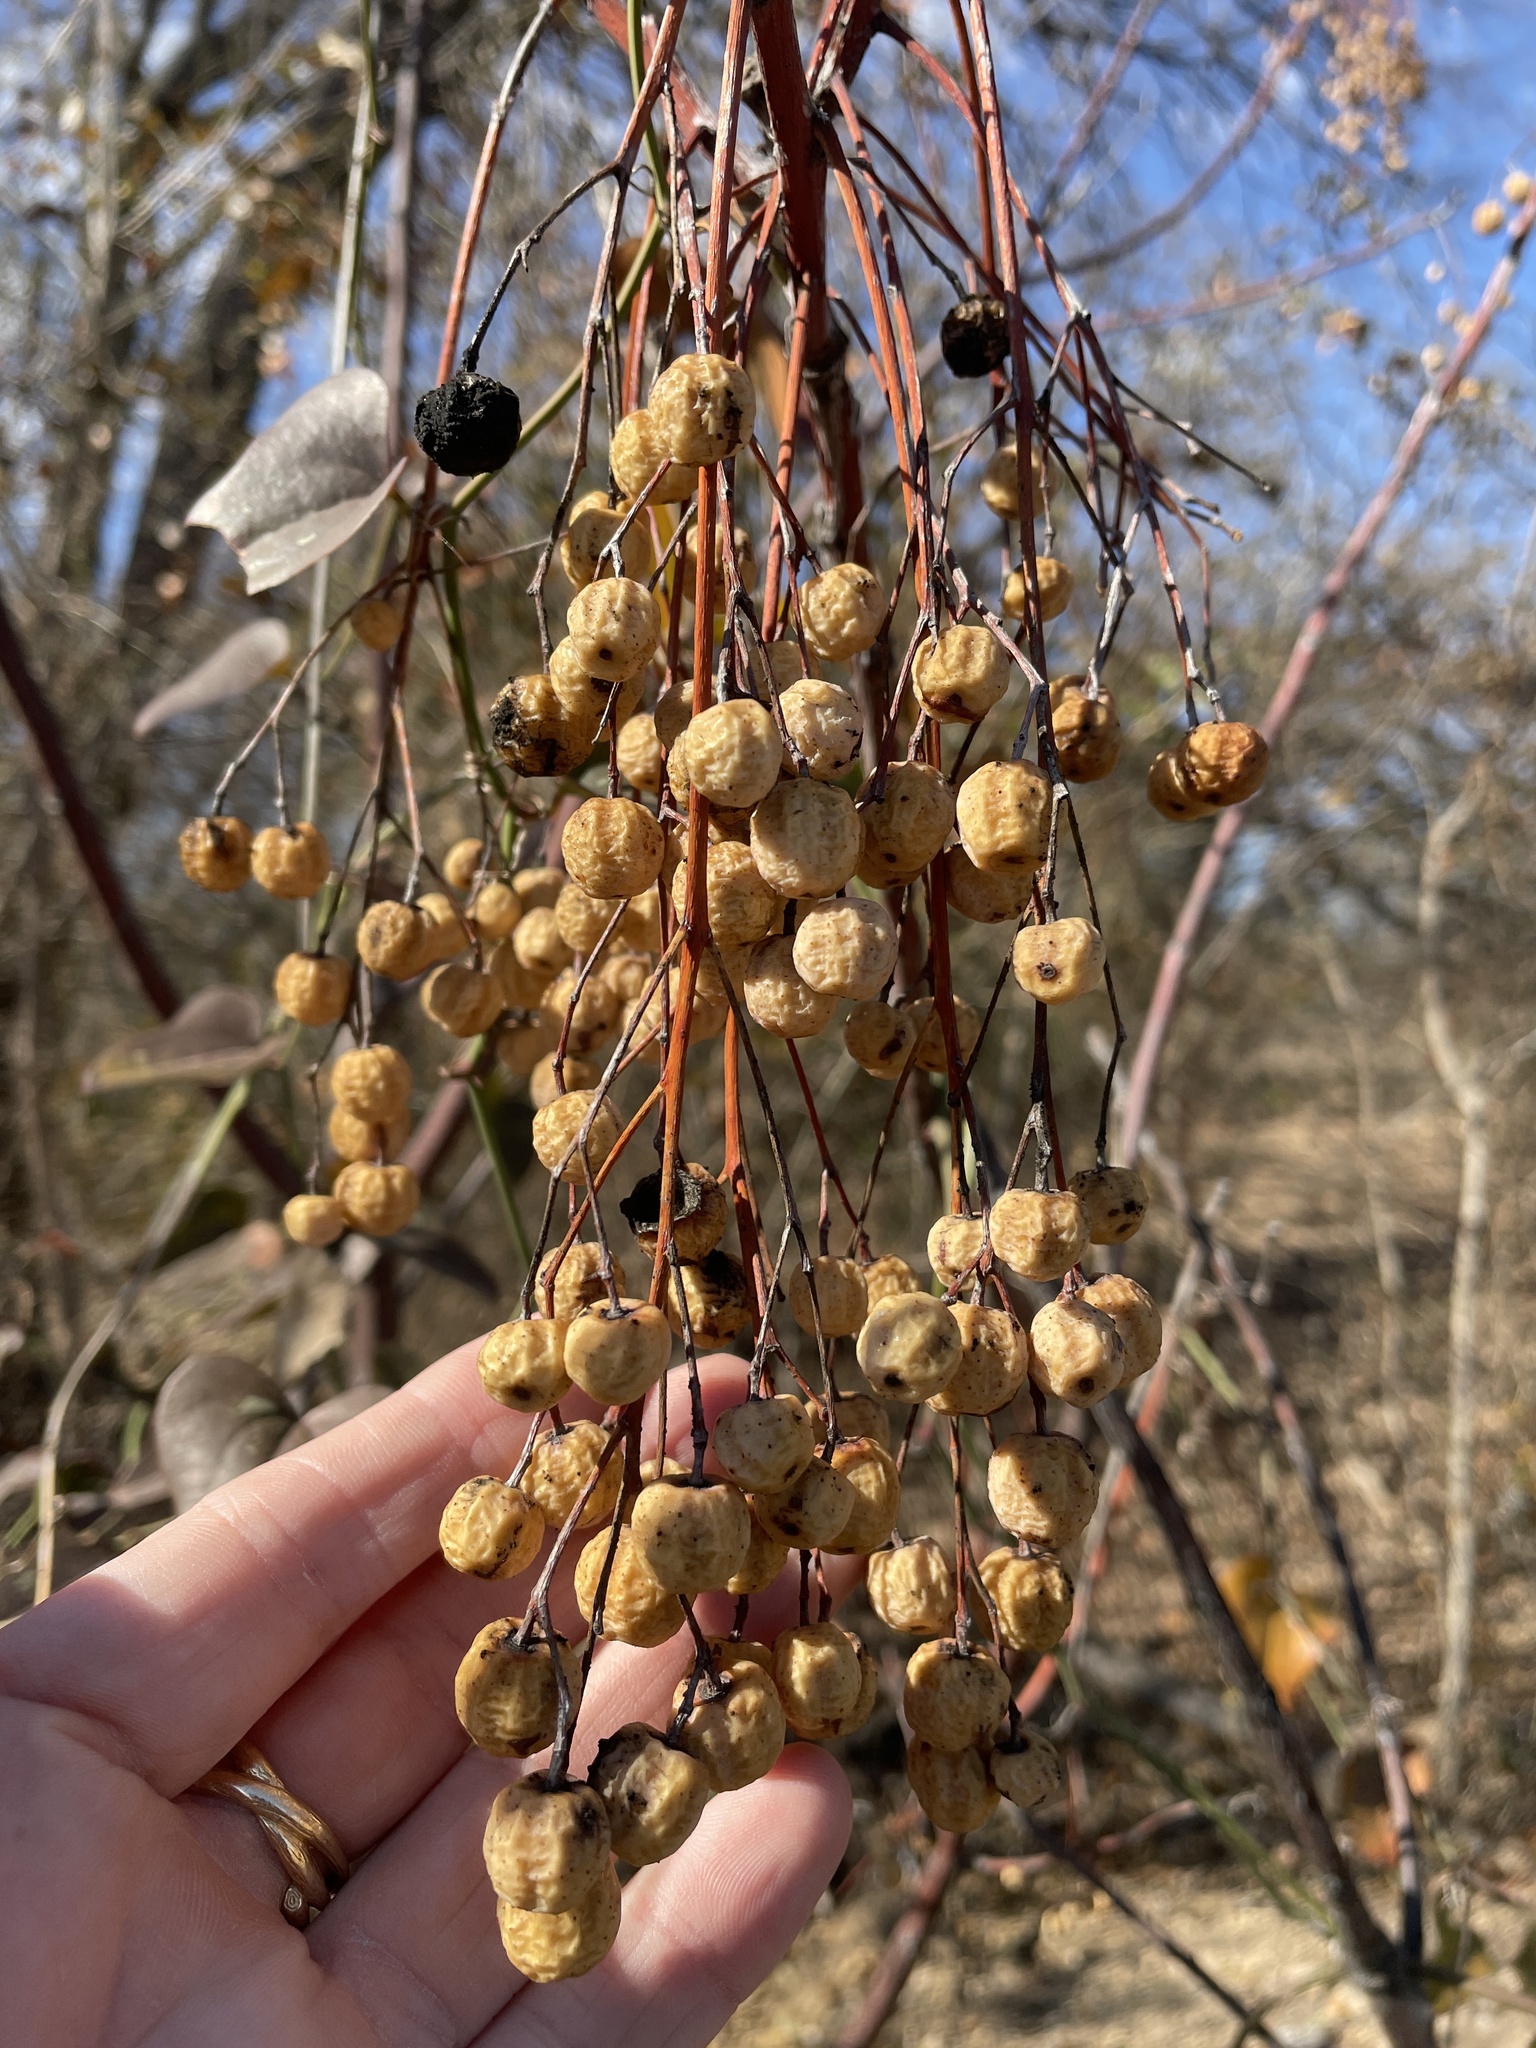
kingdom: Plantae
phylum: Tracheophyta
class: Magnoliopsida
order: Sapindales
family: Meliaceae
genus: Melia
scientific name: Melia azedarach
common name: Chinaberrytree
